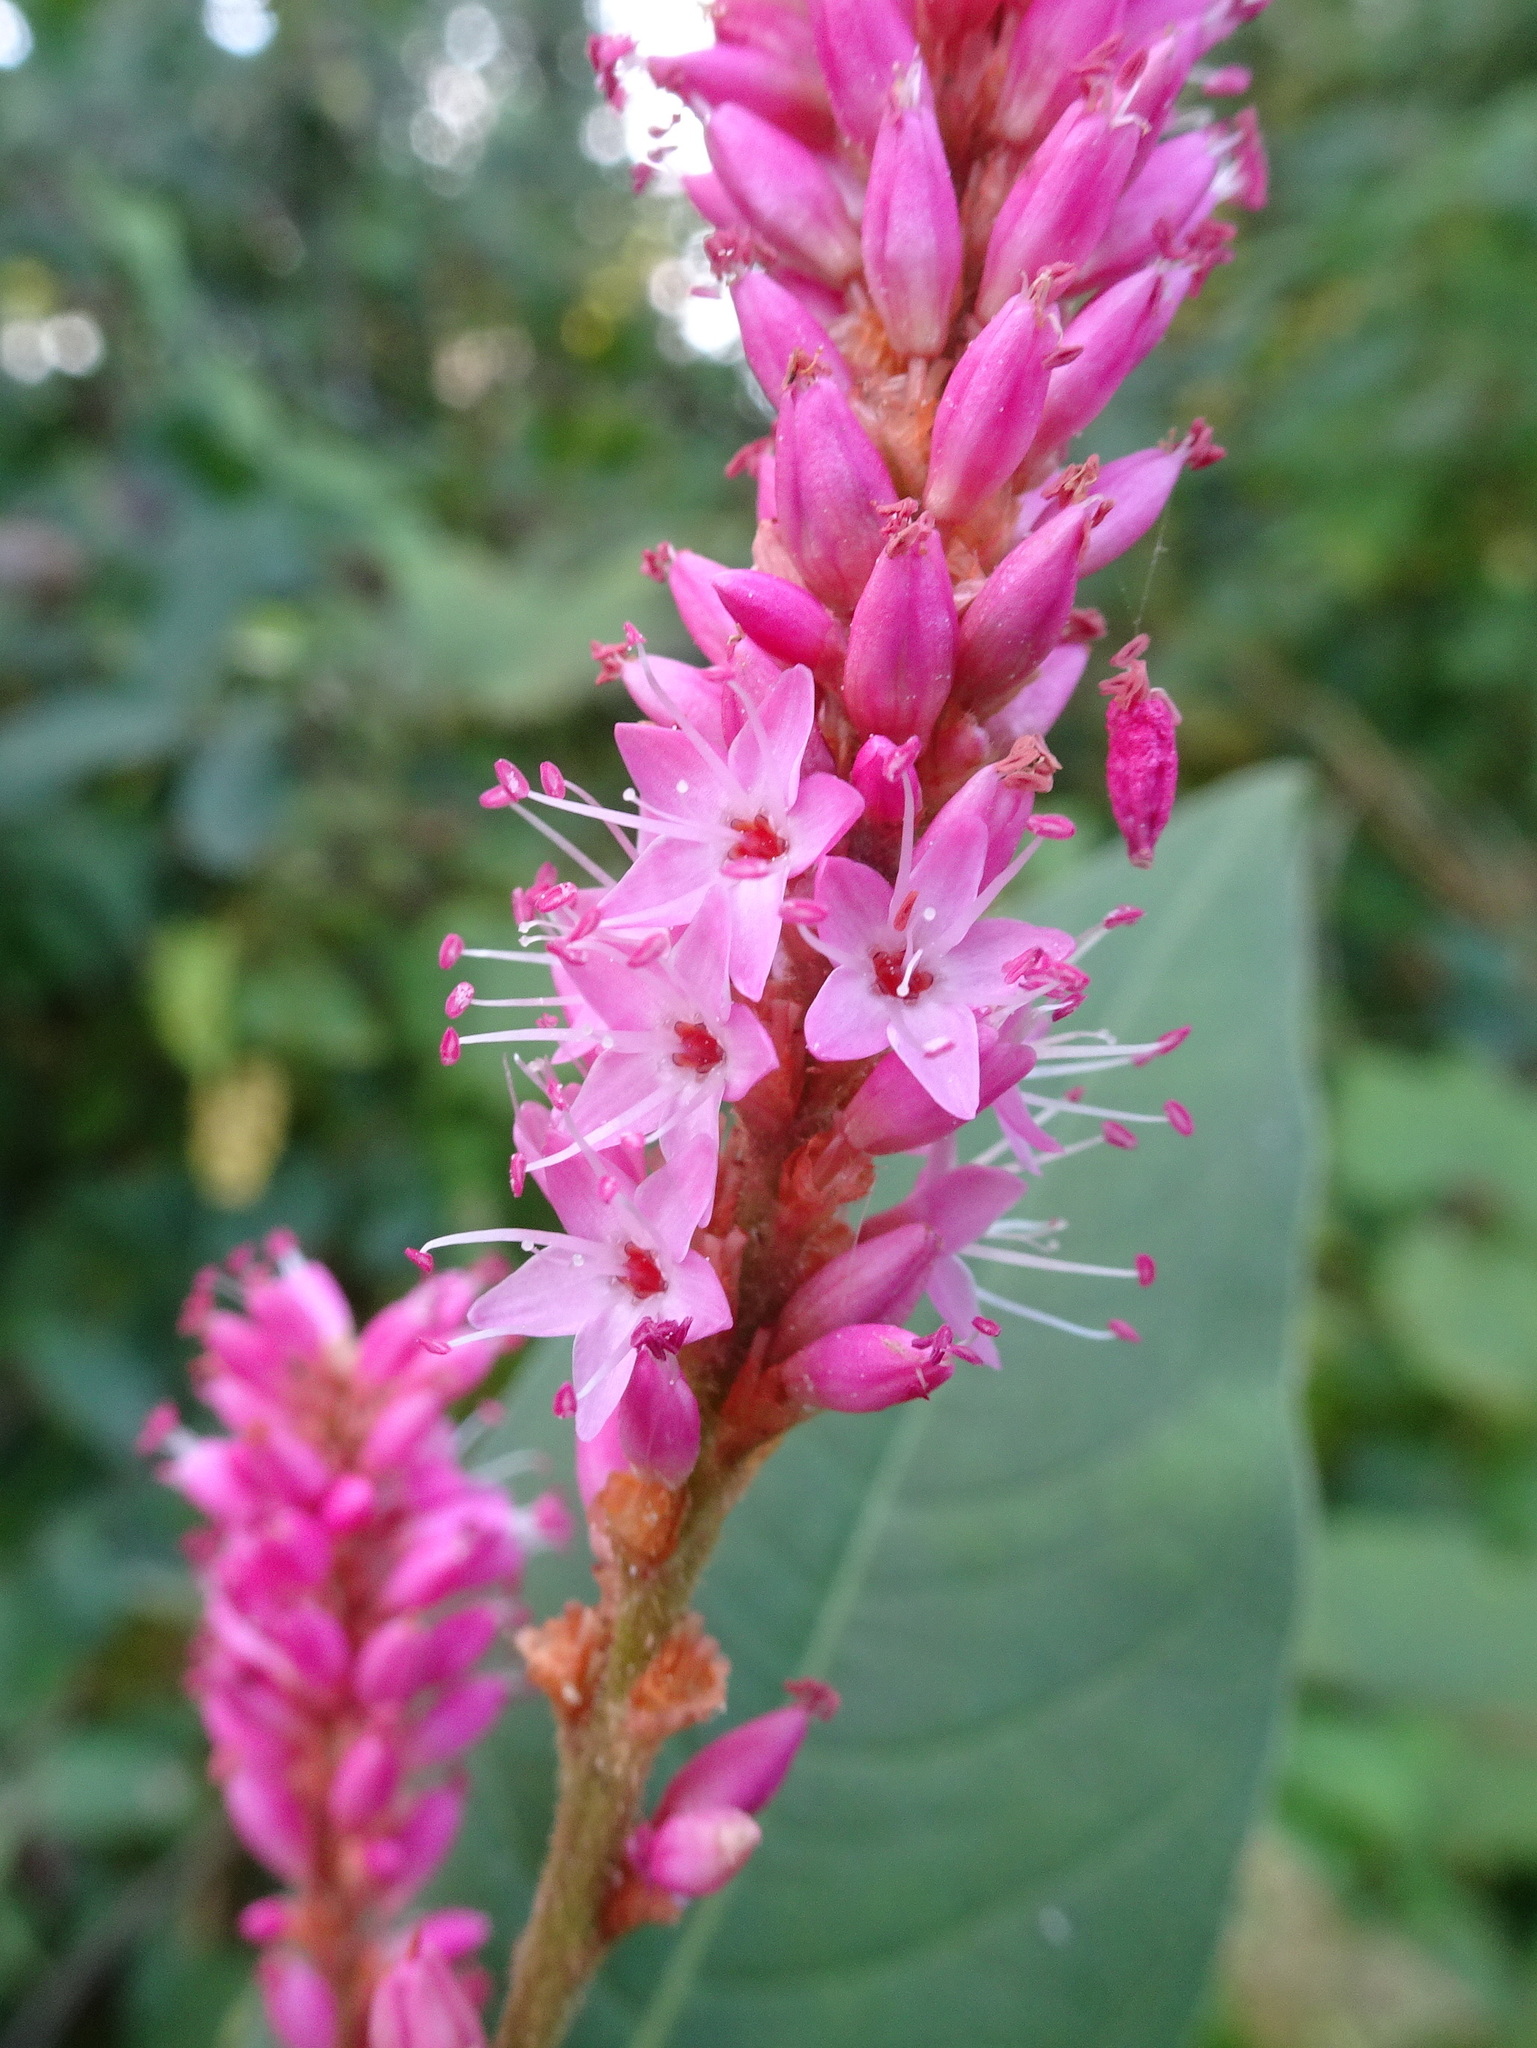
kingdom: Plantae
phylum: Tracheophyta
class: Magnoliopsida
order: Caryophyllales
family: Polygonaceae
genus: Persicaria
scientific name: Persicaria amphibia
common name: Amphibious bistort
